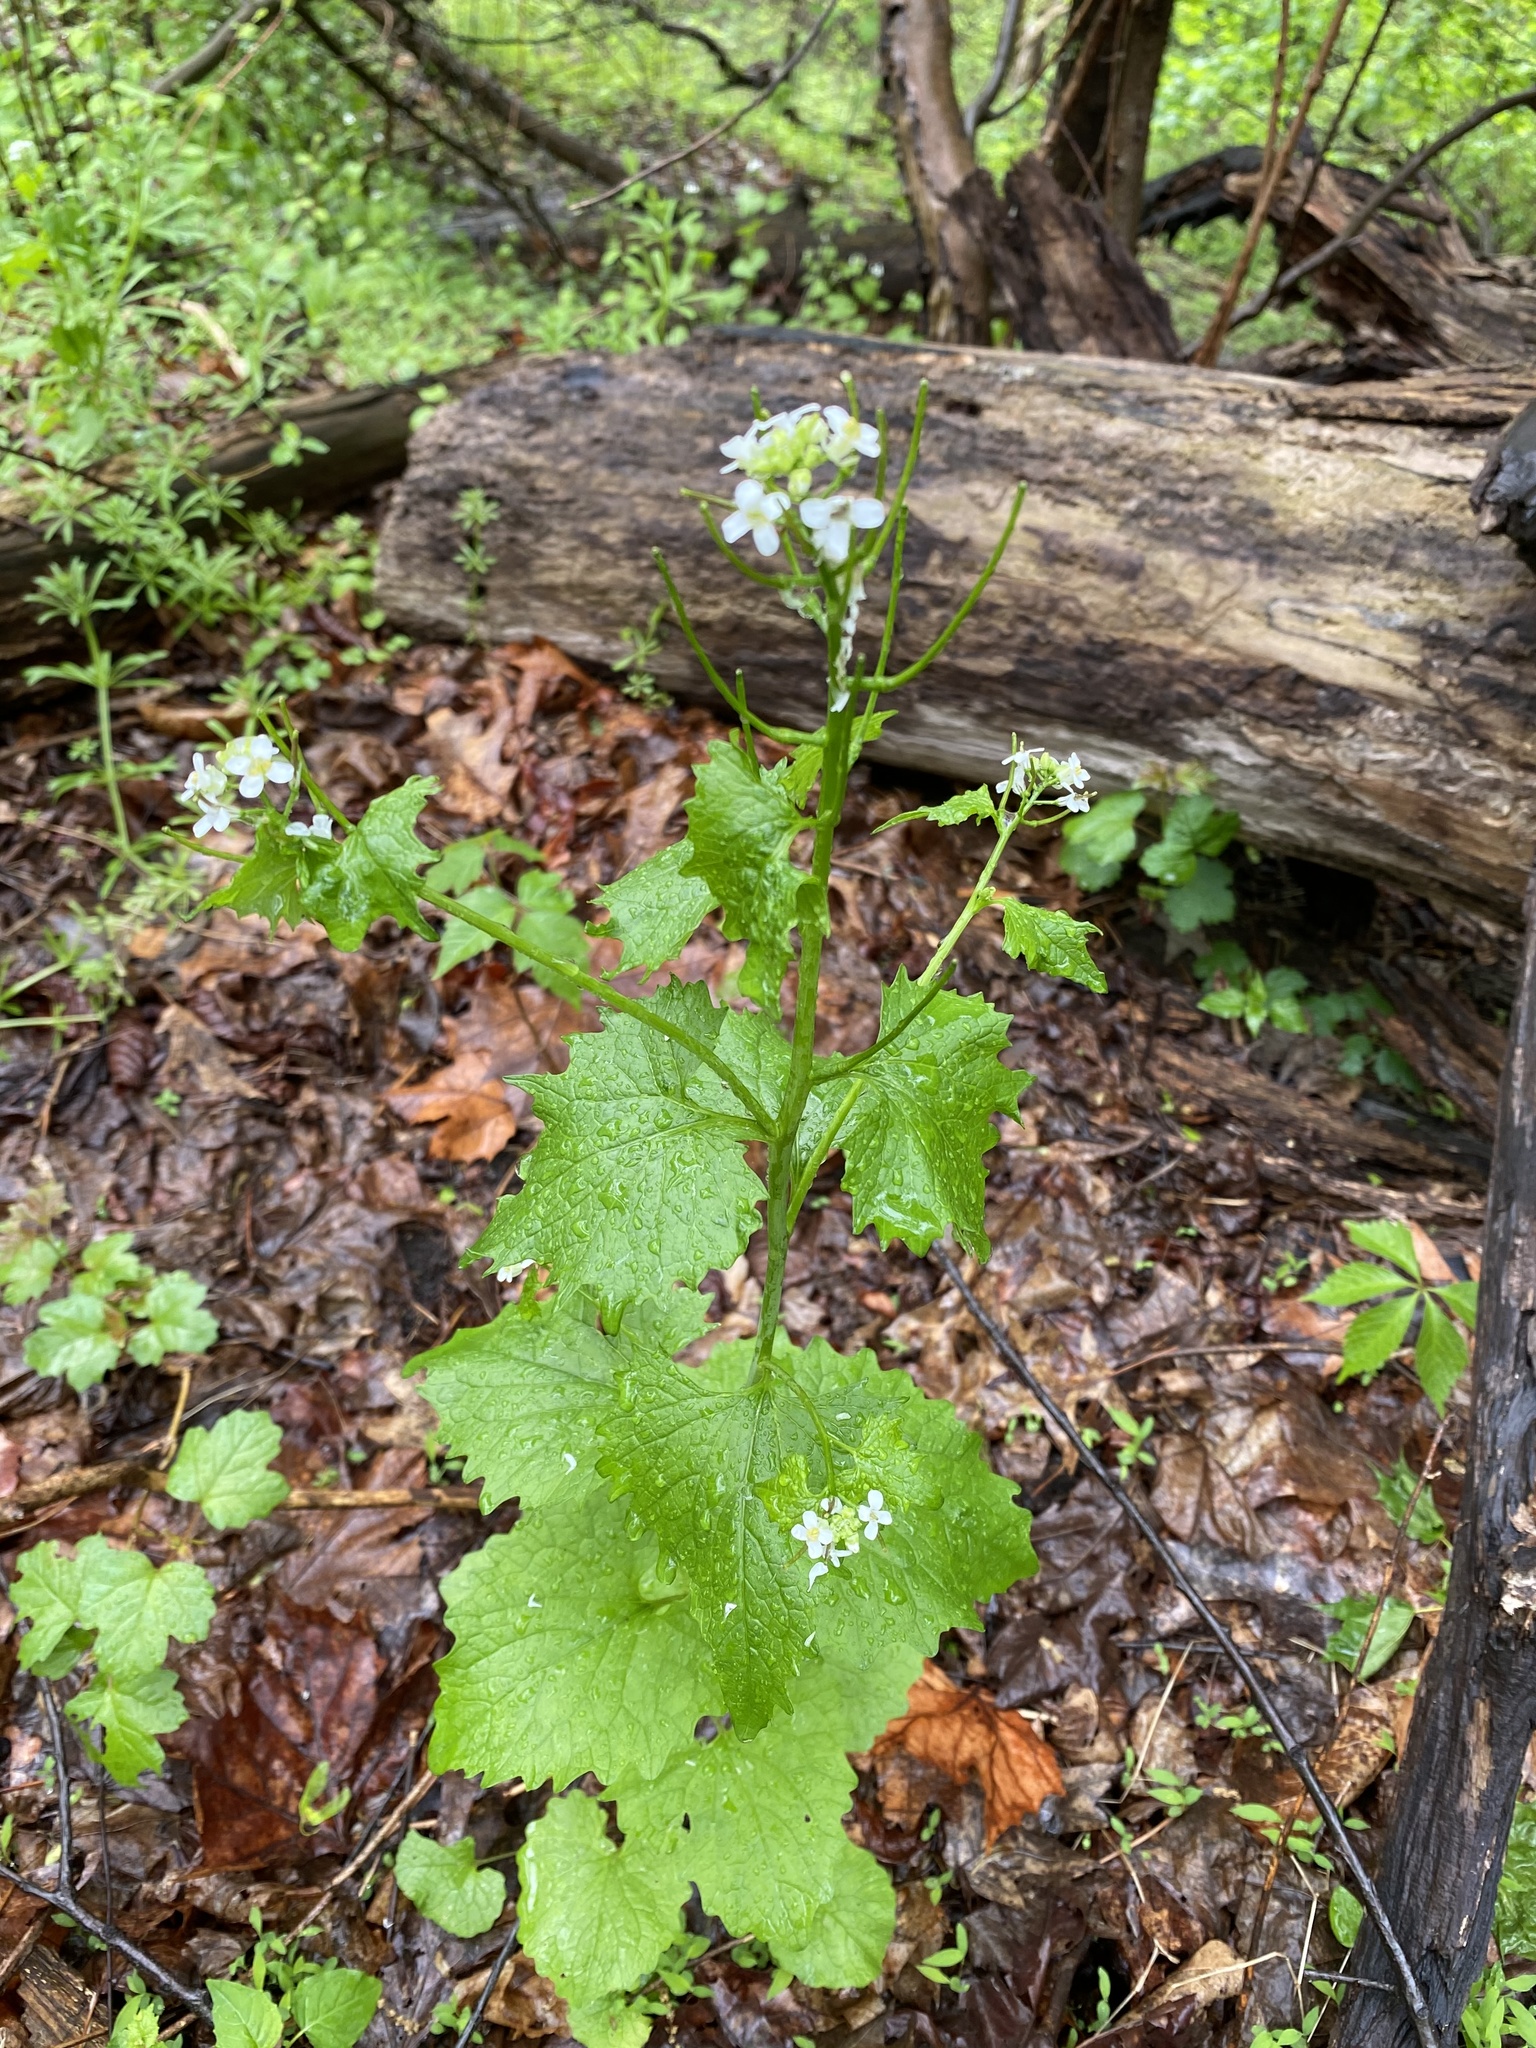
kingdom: Plantae
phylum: Tracheophyta
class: Magnoliopsida
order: Brassicales
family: Brassicaceae
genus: Alliaria
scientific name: Alliaria petiolata
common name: Garlic mustard
